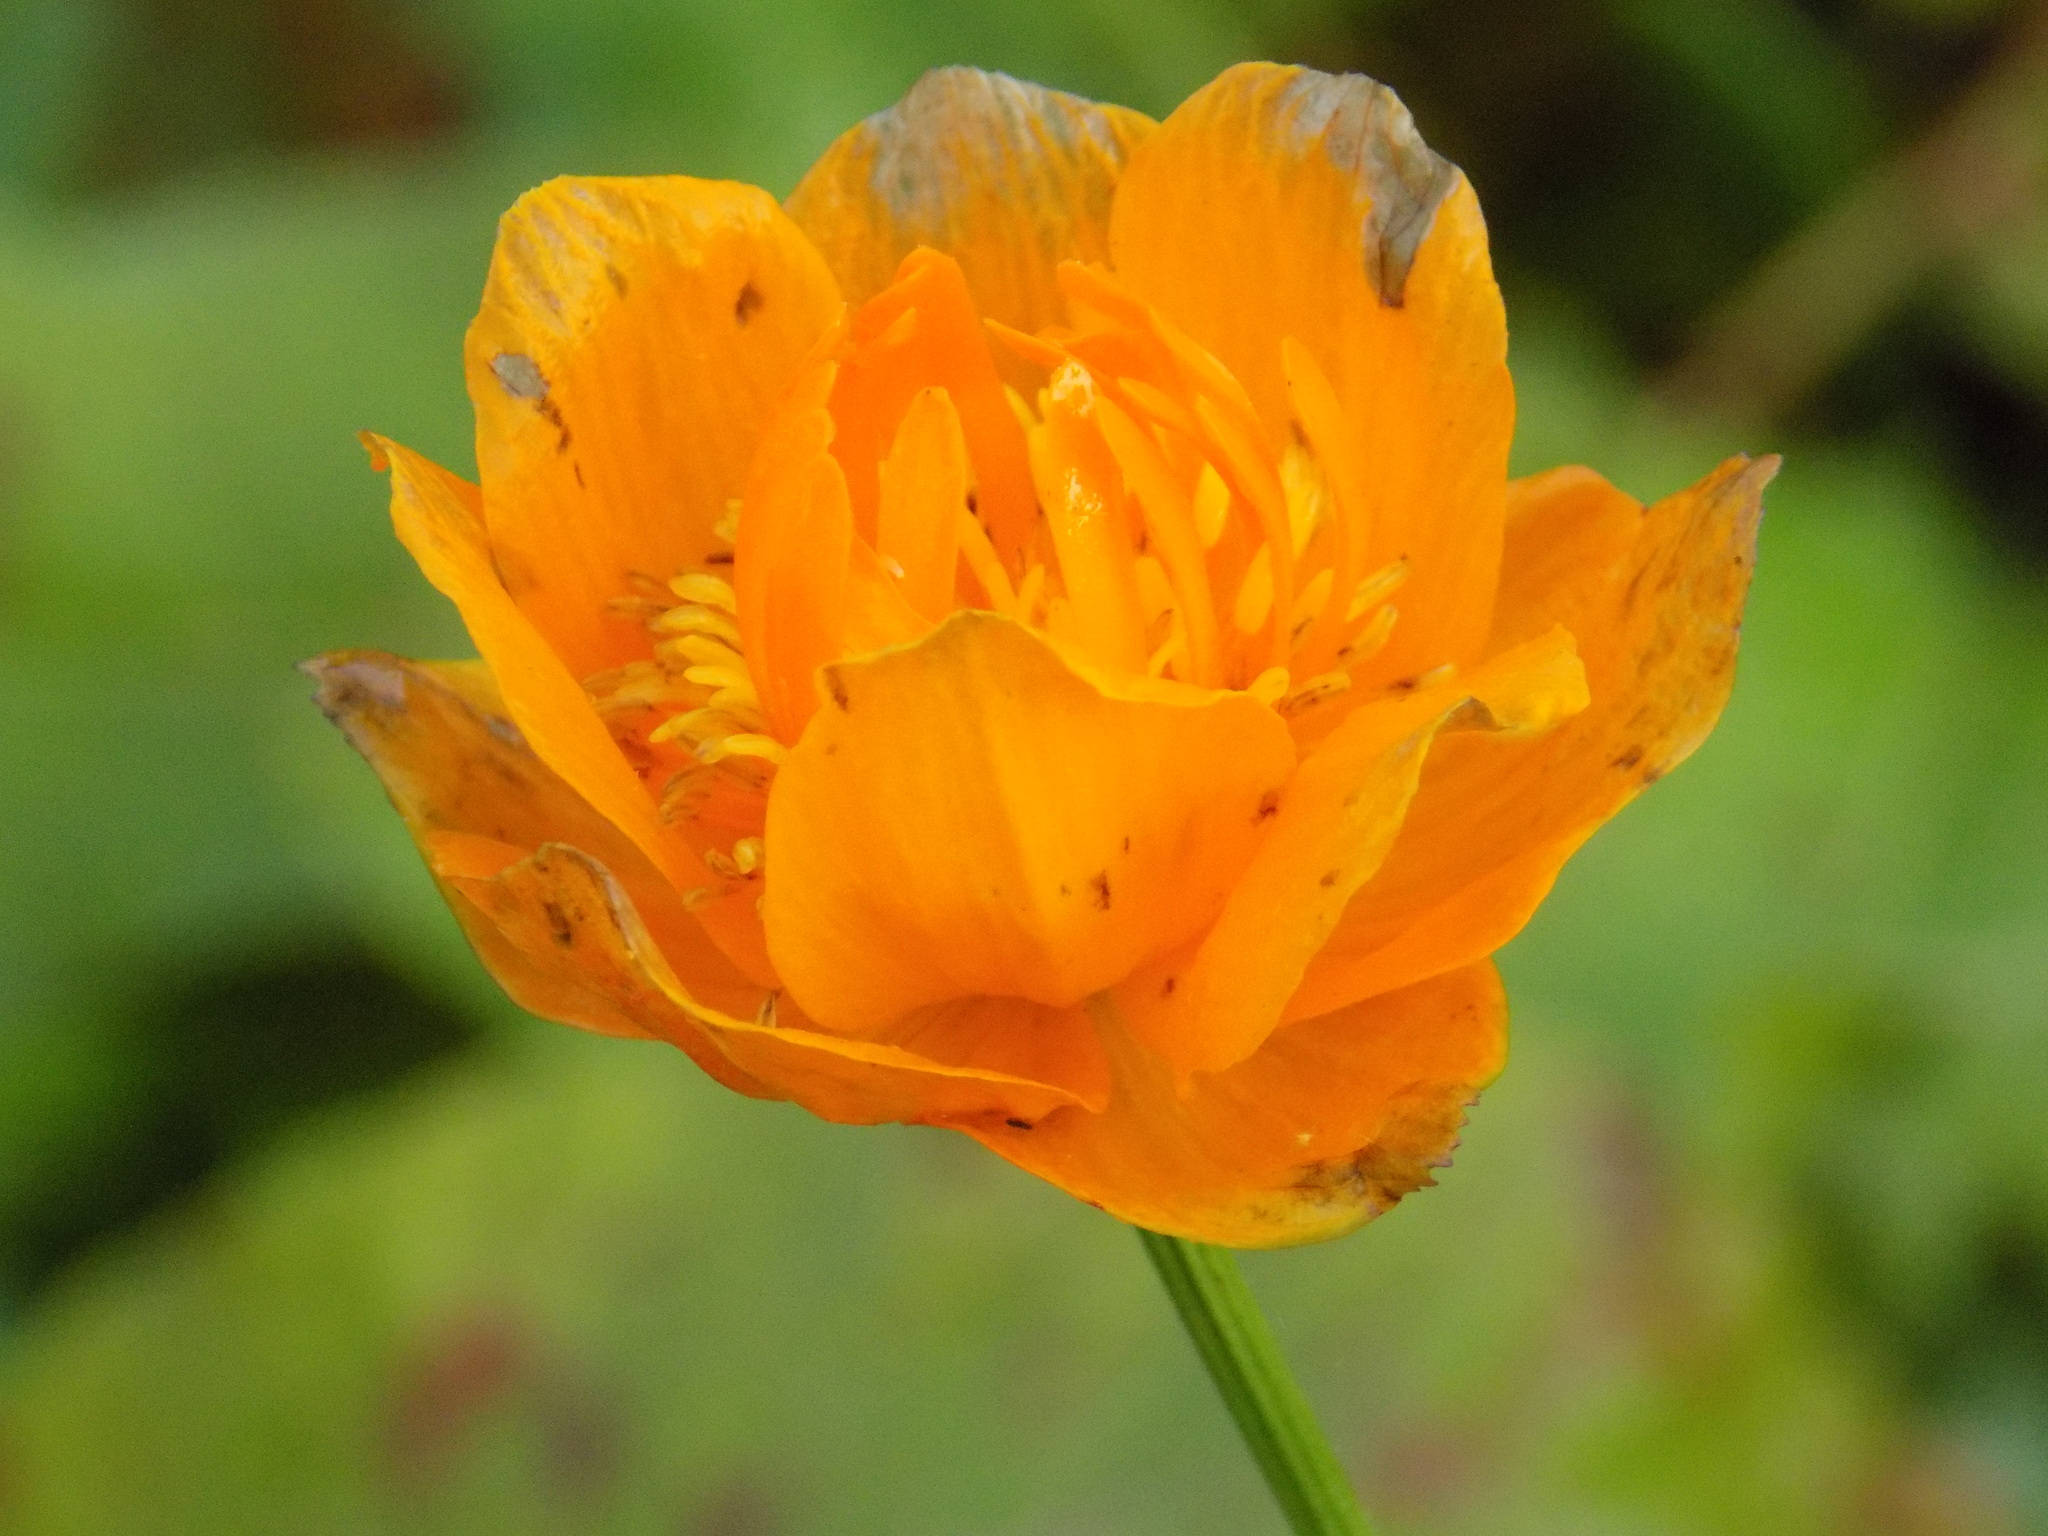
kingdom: Plantae
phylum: Tracheophyta
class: Magnoliopsida
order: Ranunculales
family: Ranunculaceae
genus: Trollius
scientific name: Trollius asiaticus
